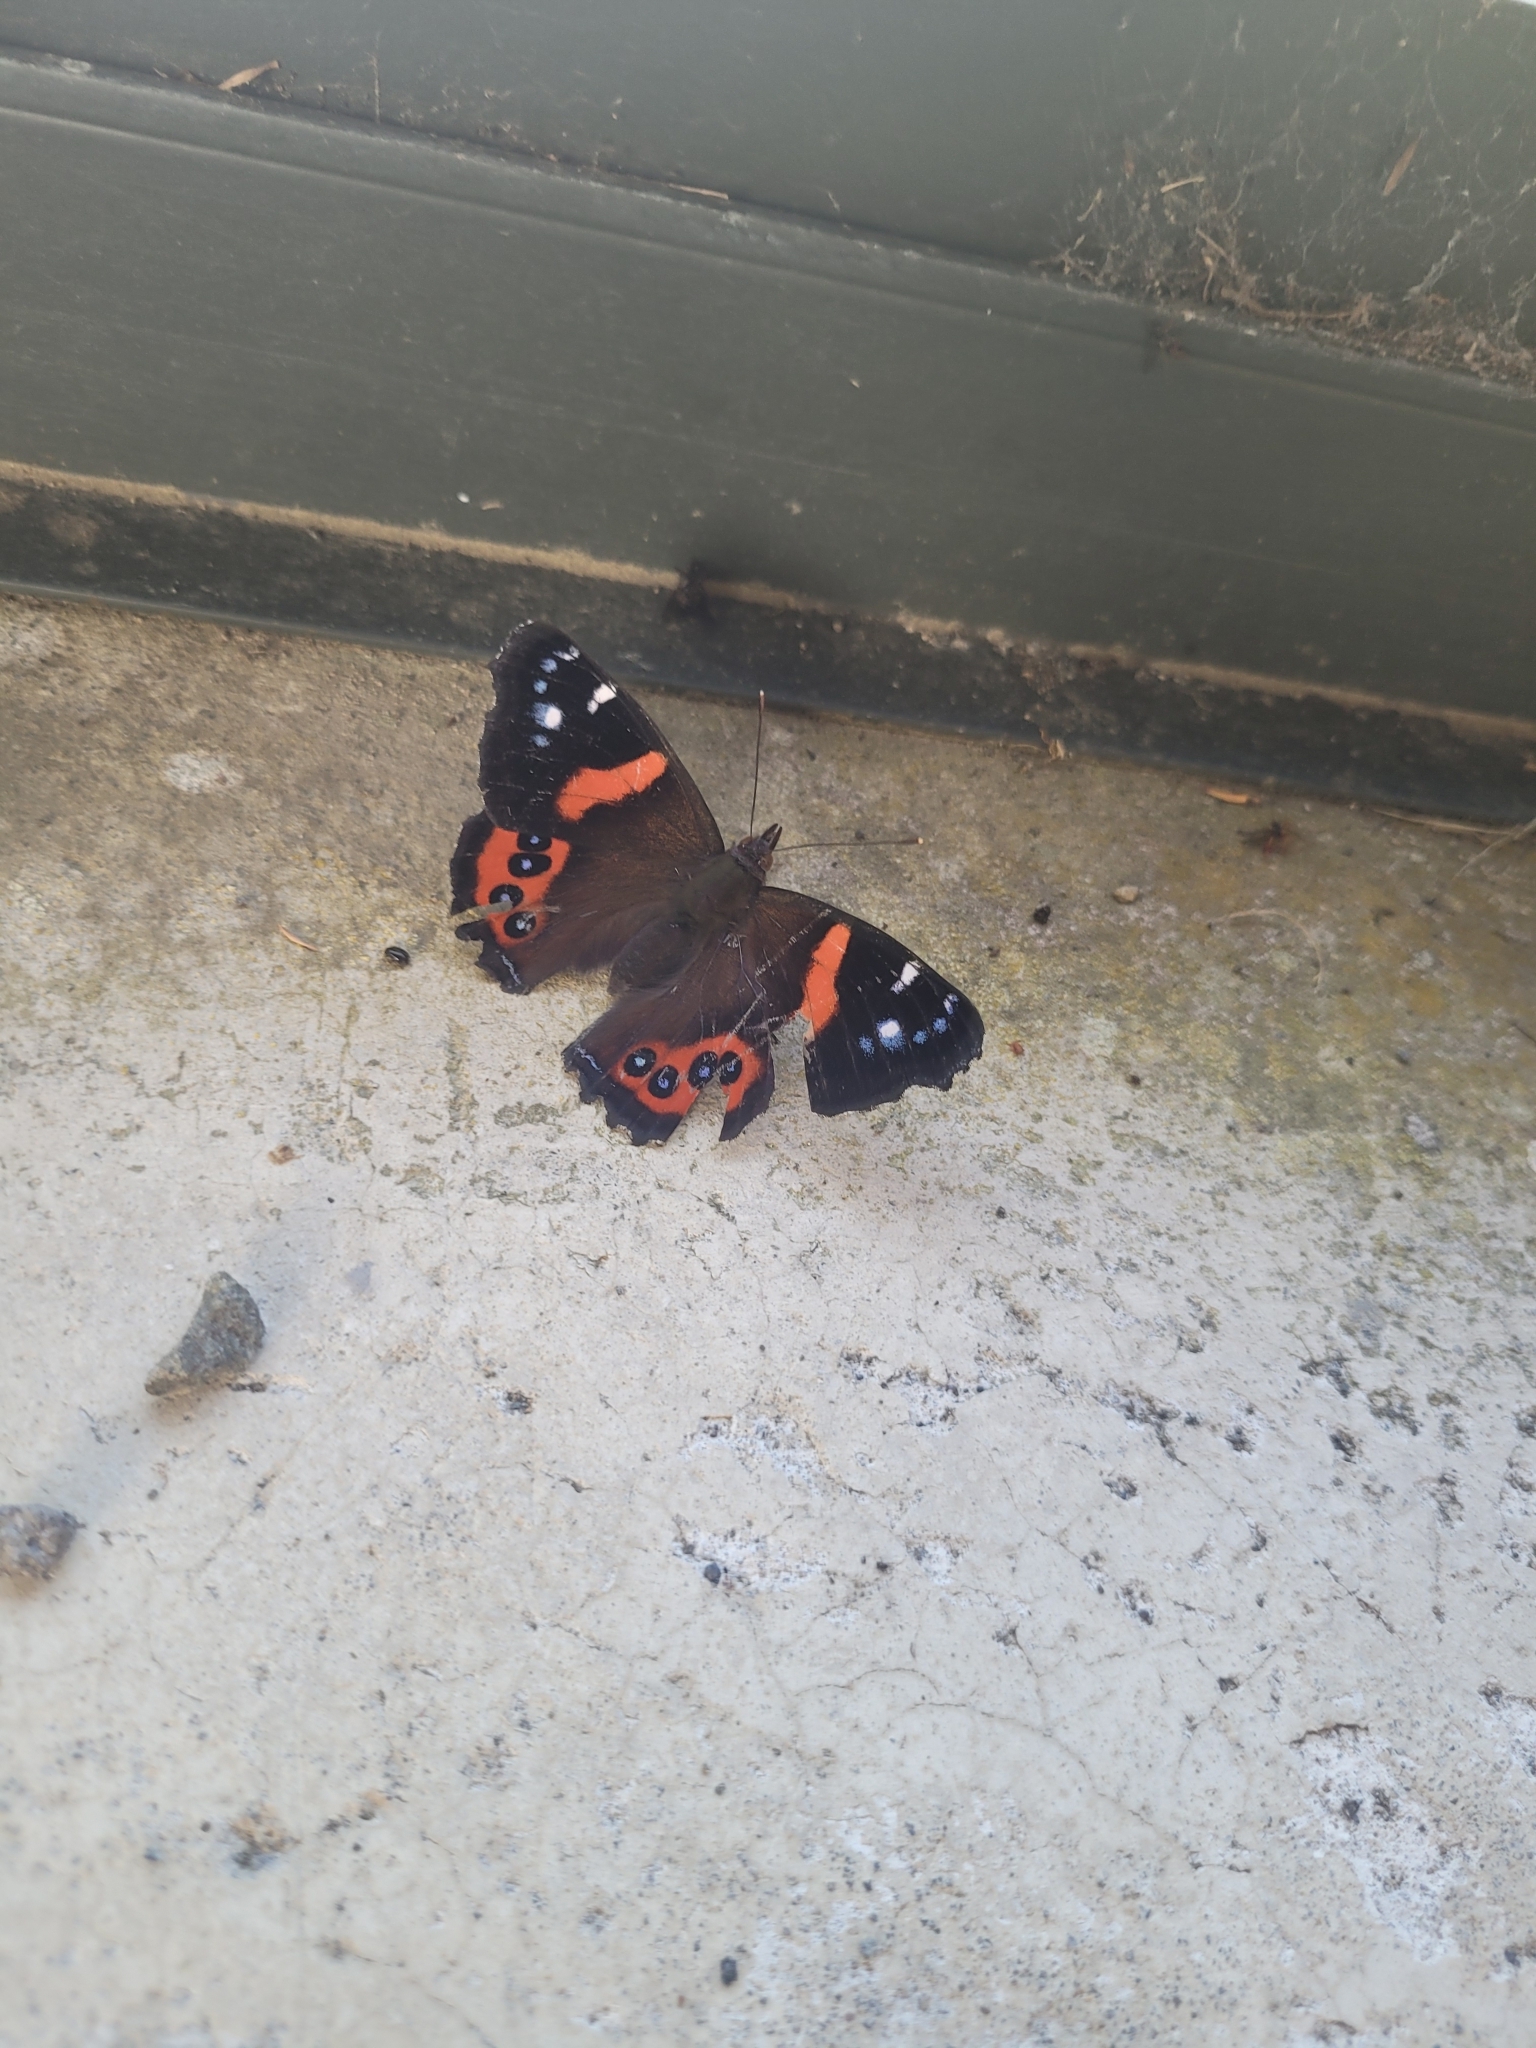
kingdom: Animalia
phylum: Arthropoda
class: Insecta
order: Lepidoptera
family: Nymphalidae
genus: Vanessa
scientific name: Vanessa gonerilla
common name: New zealand red admiral
